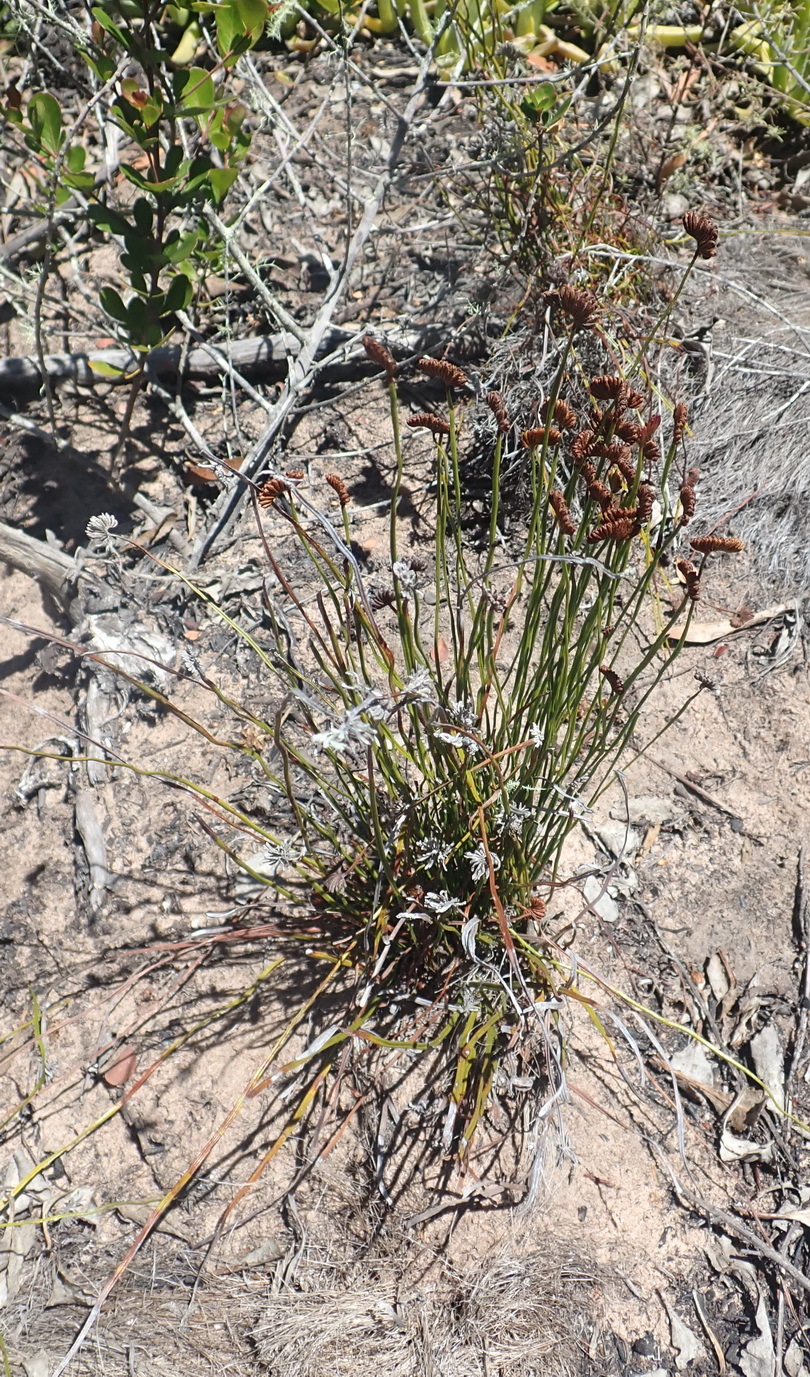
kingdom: Plantae
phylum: Tracheophyta
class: Polypodiopsida
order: Schizaeales
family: Schizaeaceae
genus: Schizaea
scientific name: Schizaea pectinata
